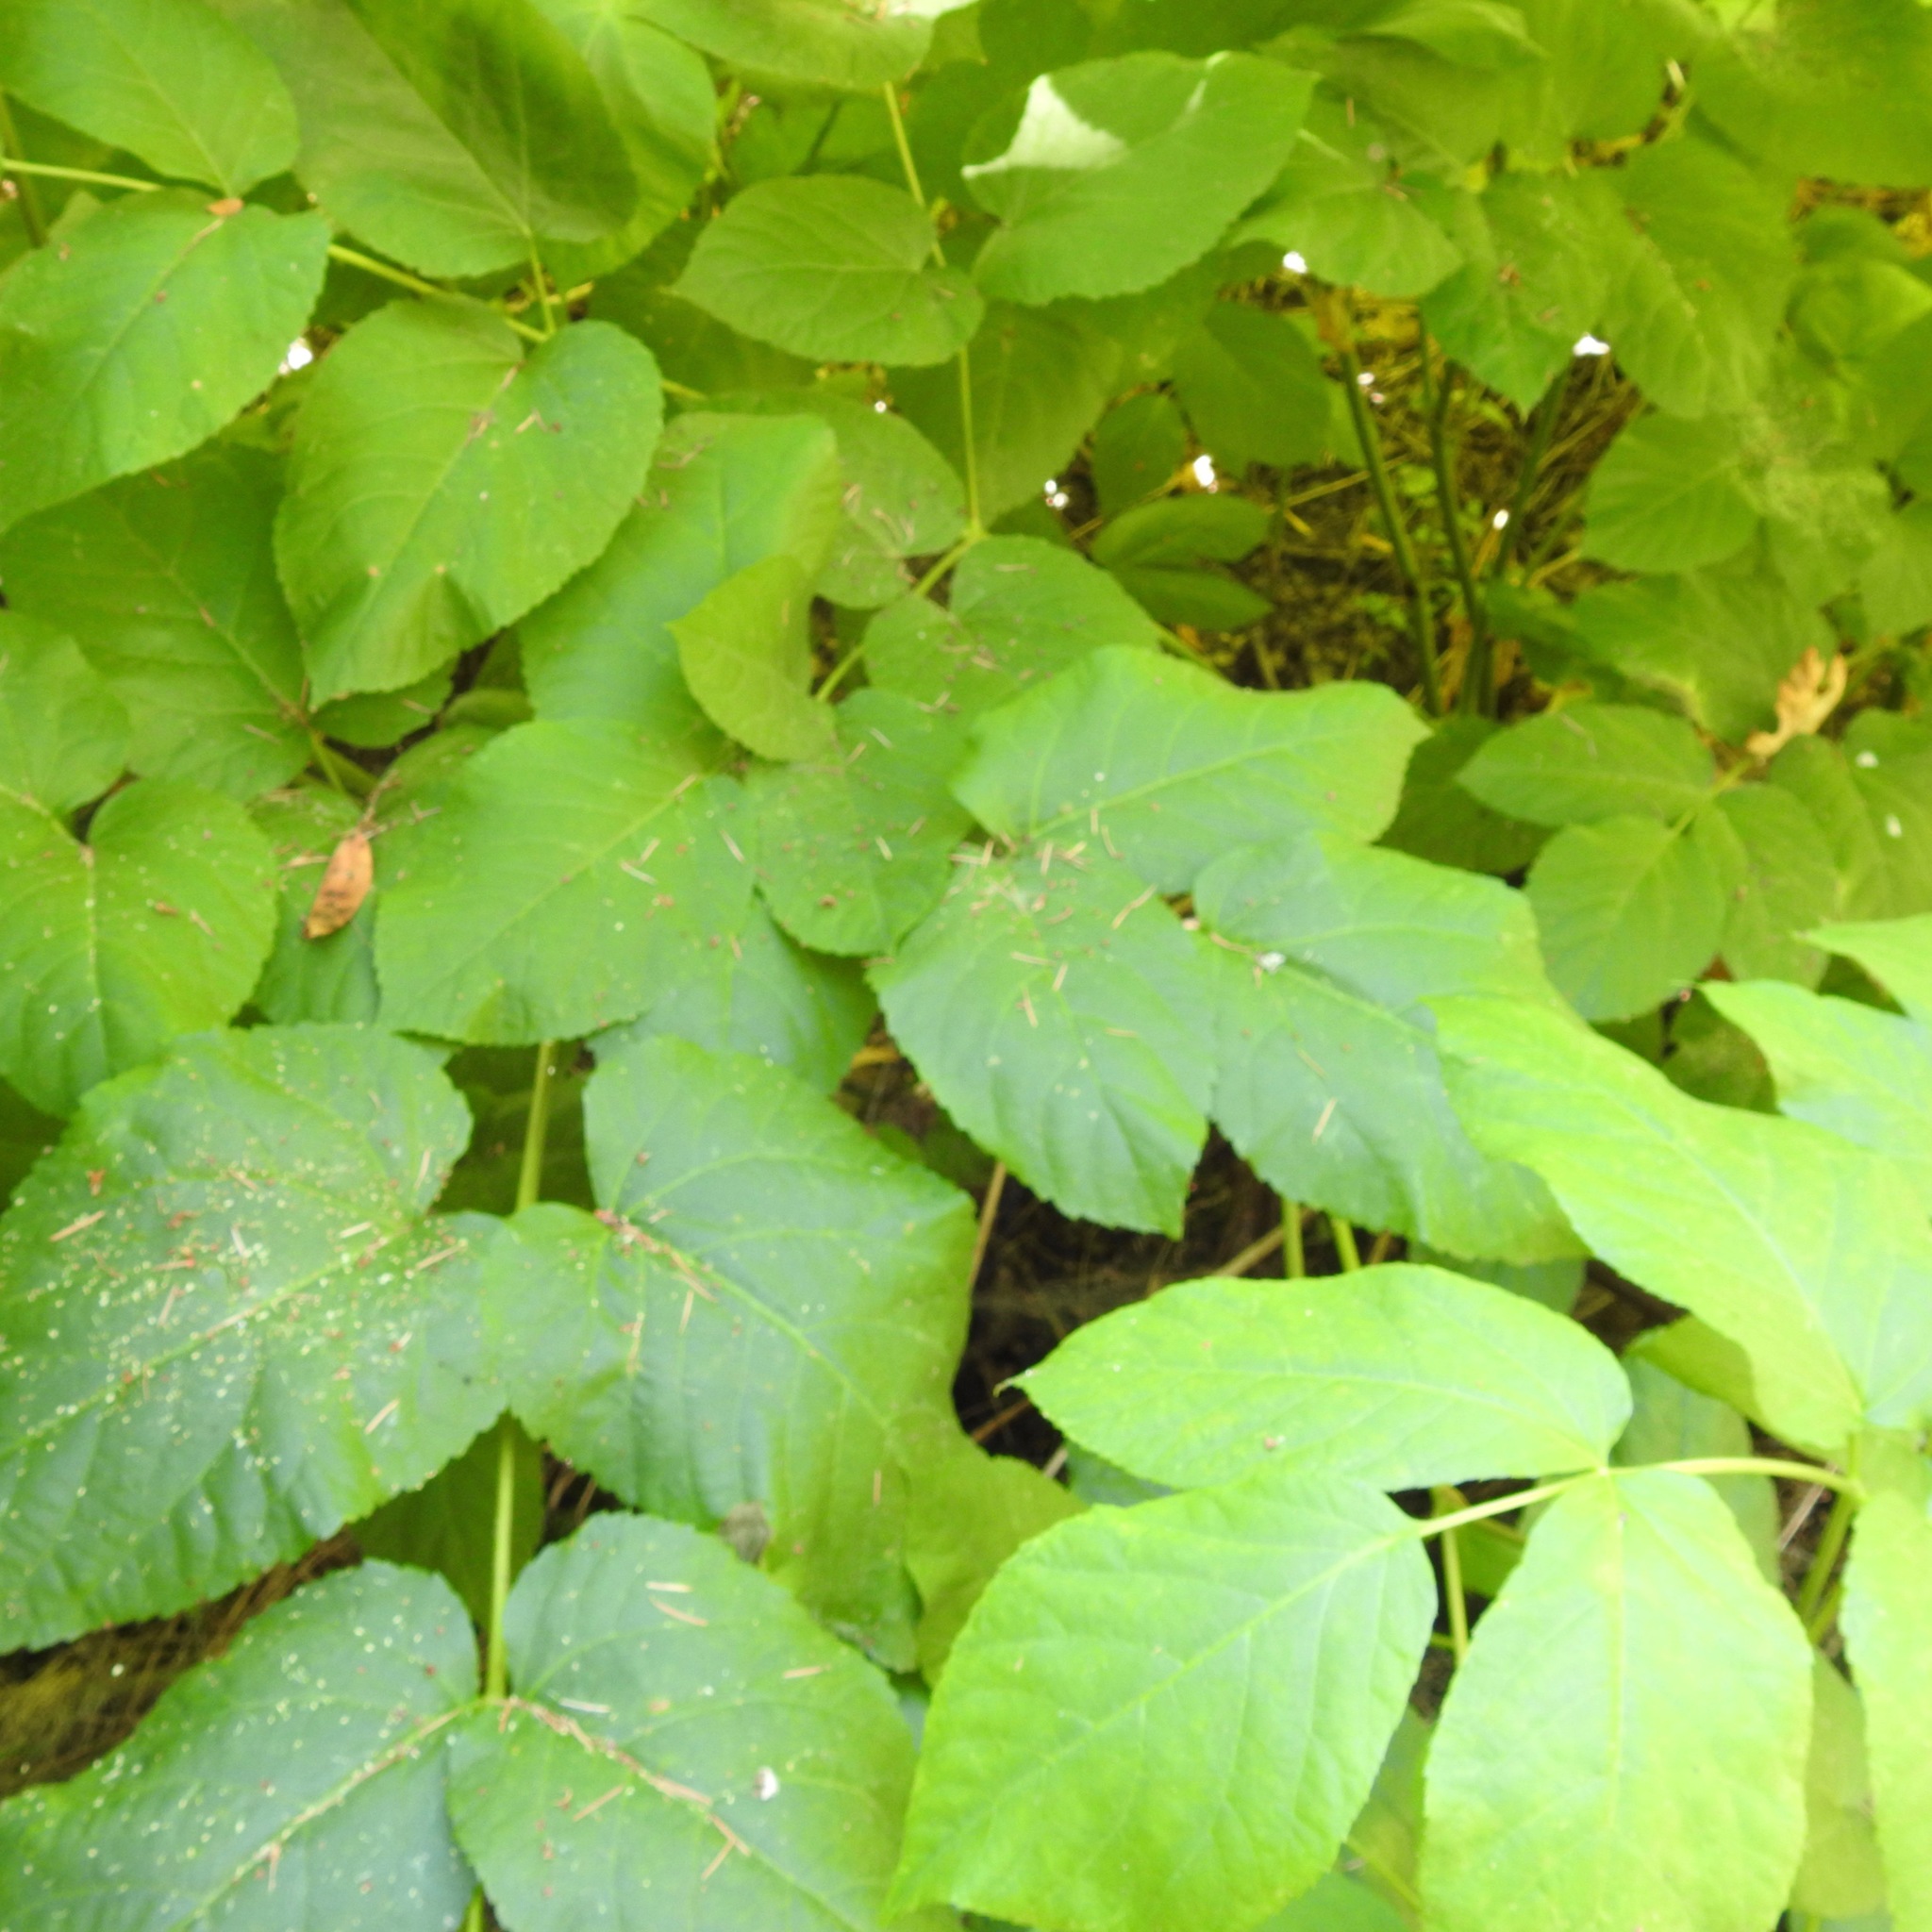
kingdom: Plantae
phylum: Tracheophyta
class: Magnoliopsida
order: Apiales
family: Araliaceae
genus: Aralia
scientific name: Aralia californica
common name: California-ginseng
